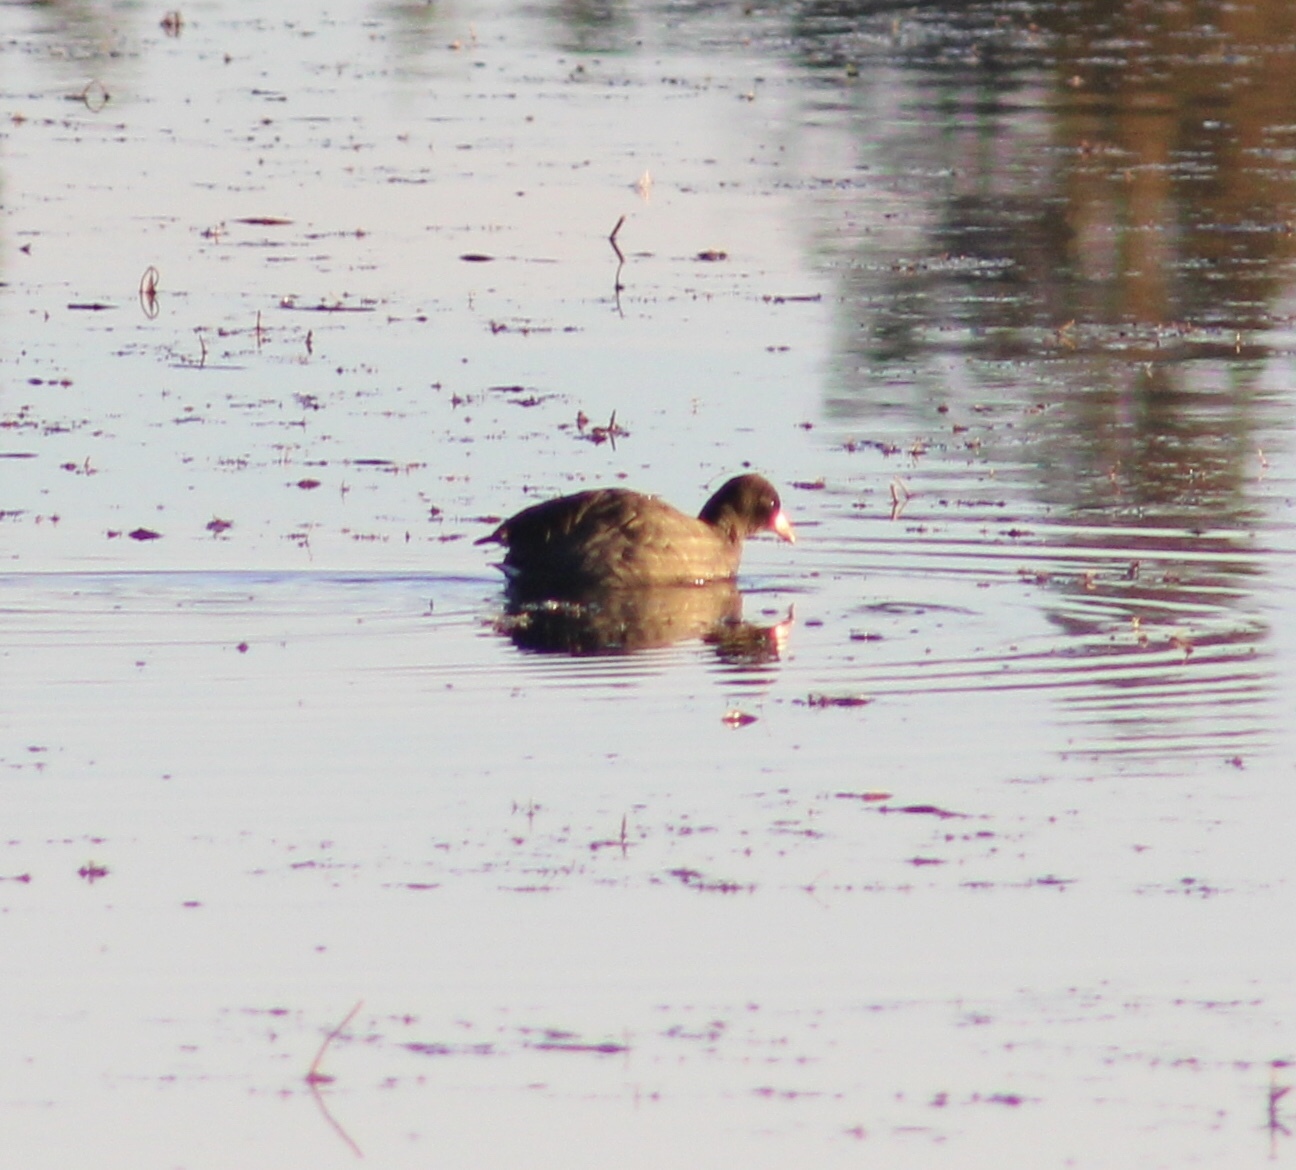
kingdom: Animalia
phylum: Chordata
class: Aves
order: Gruiformes
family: Rallidae
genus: Fulica
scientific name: Fulica americana
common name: American coot
